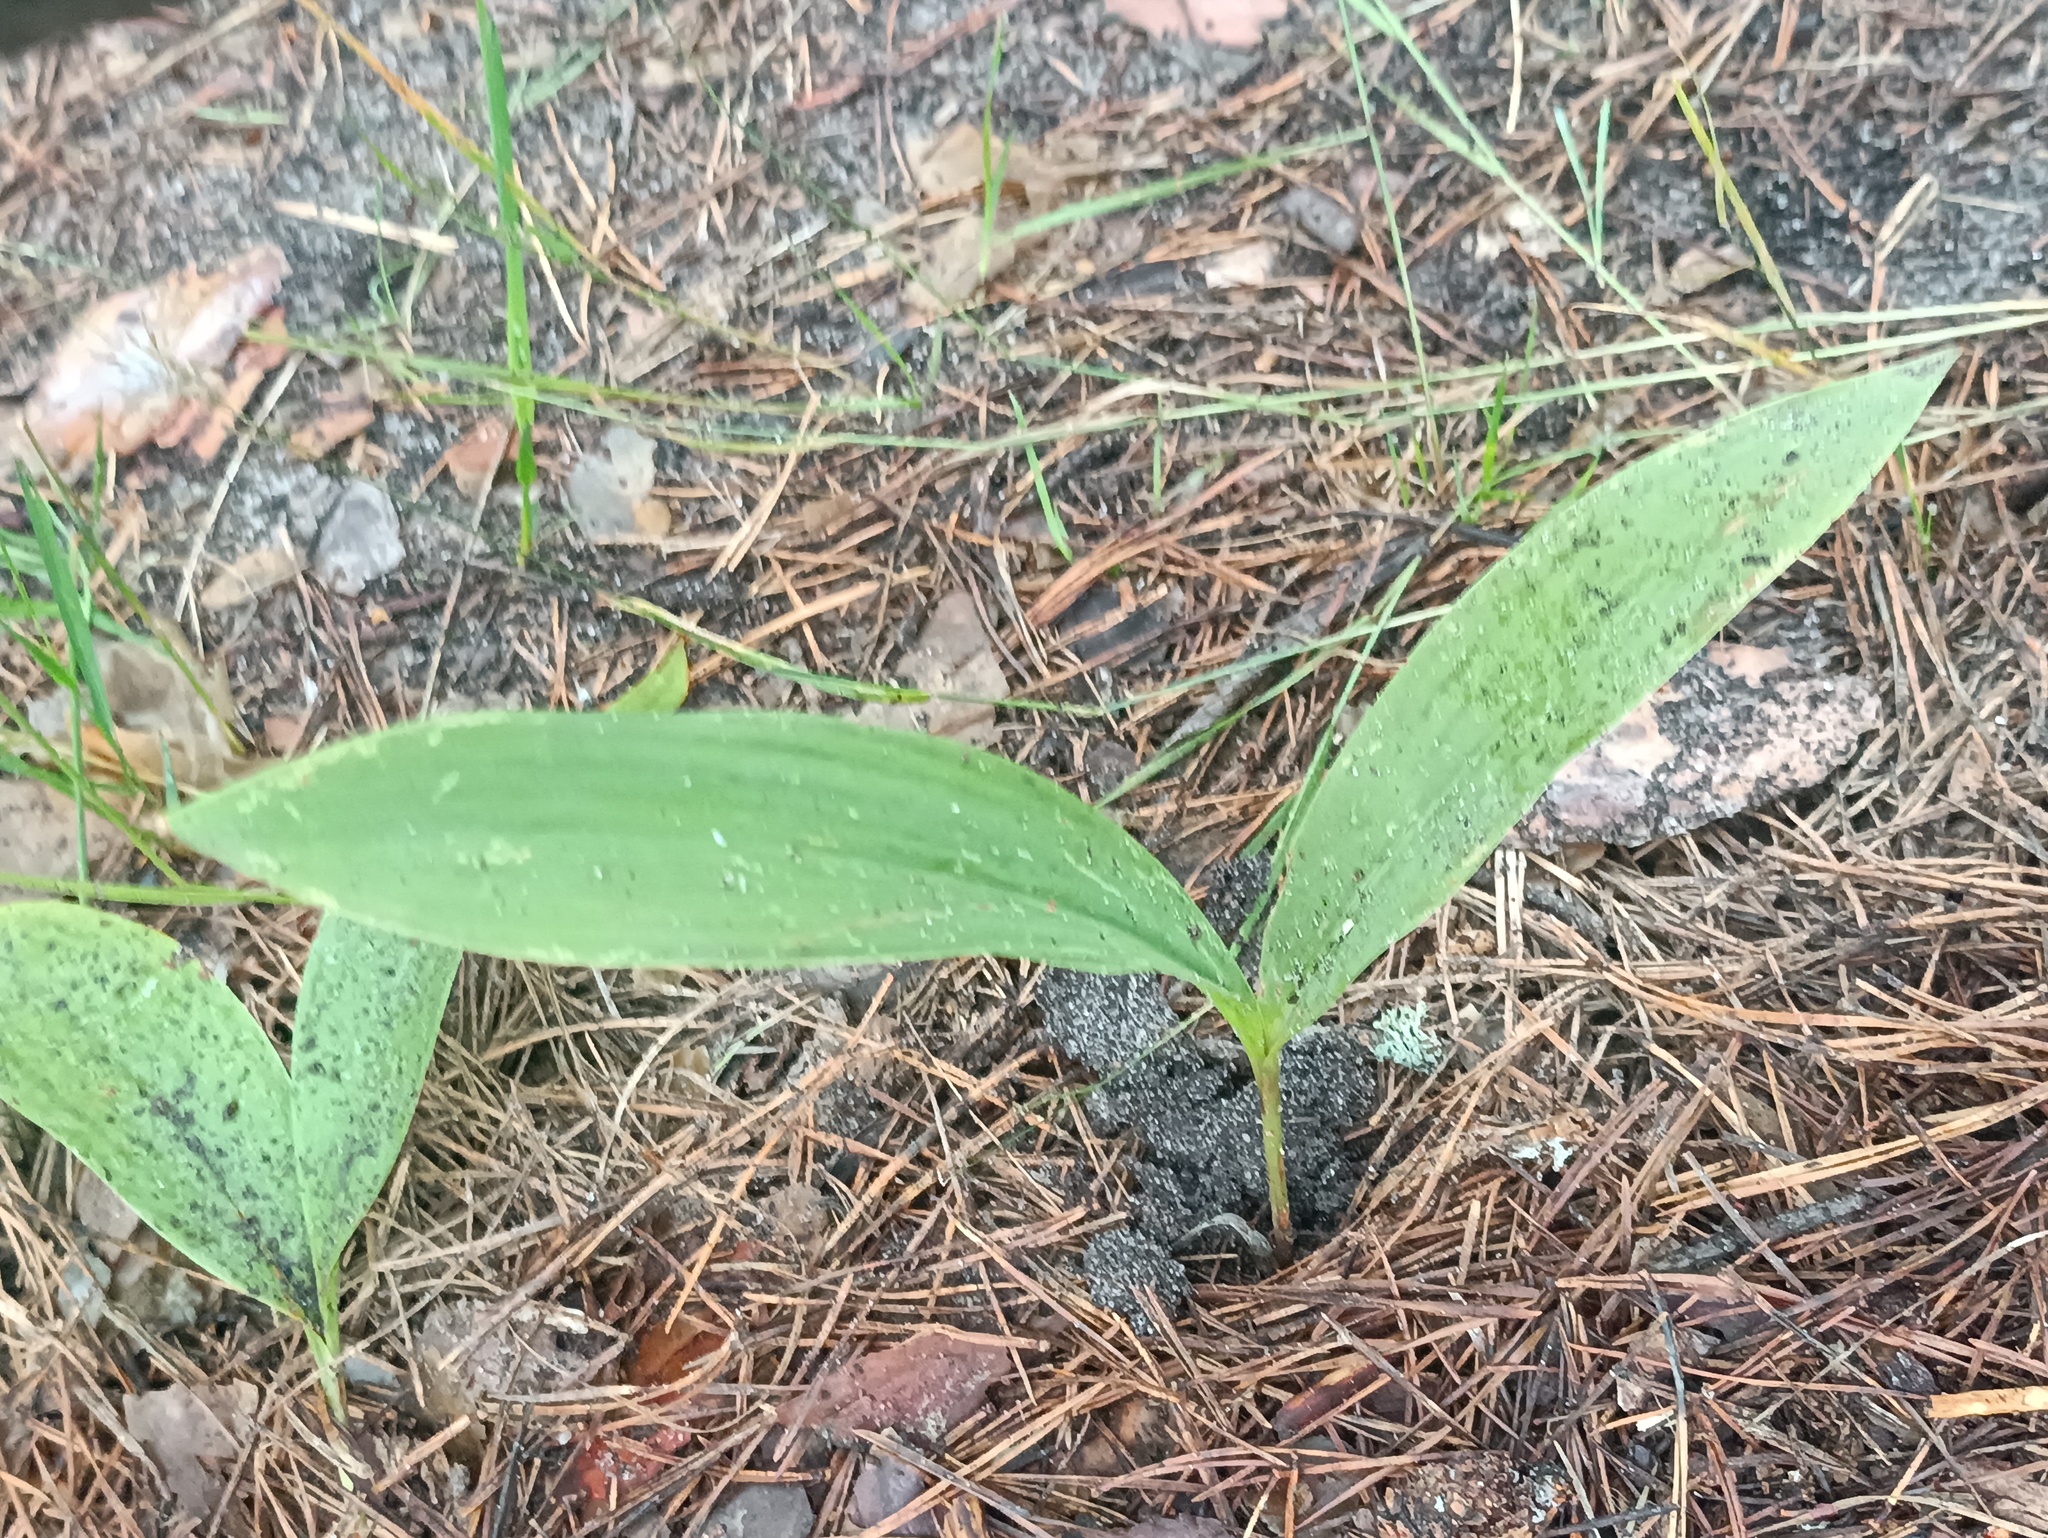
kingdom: Plantae
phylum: Tracheophyta
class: Liliopsida
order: Asparagales
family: Asparagaceae
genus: Convallaria
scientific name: Convallaria majalis
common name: Lily-of-the-valley
